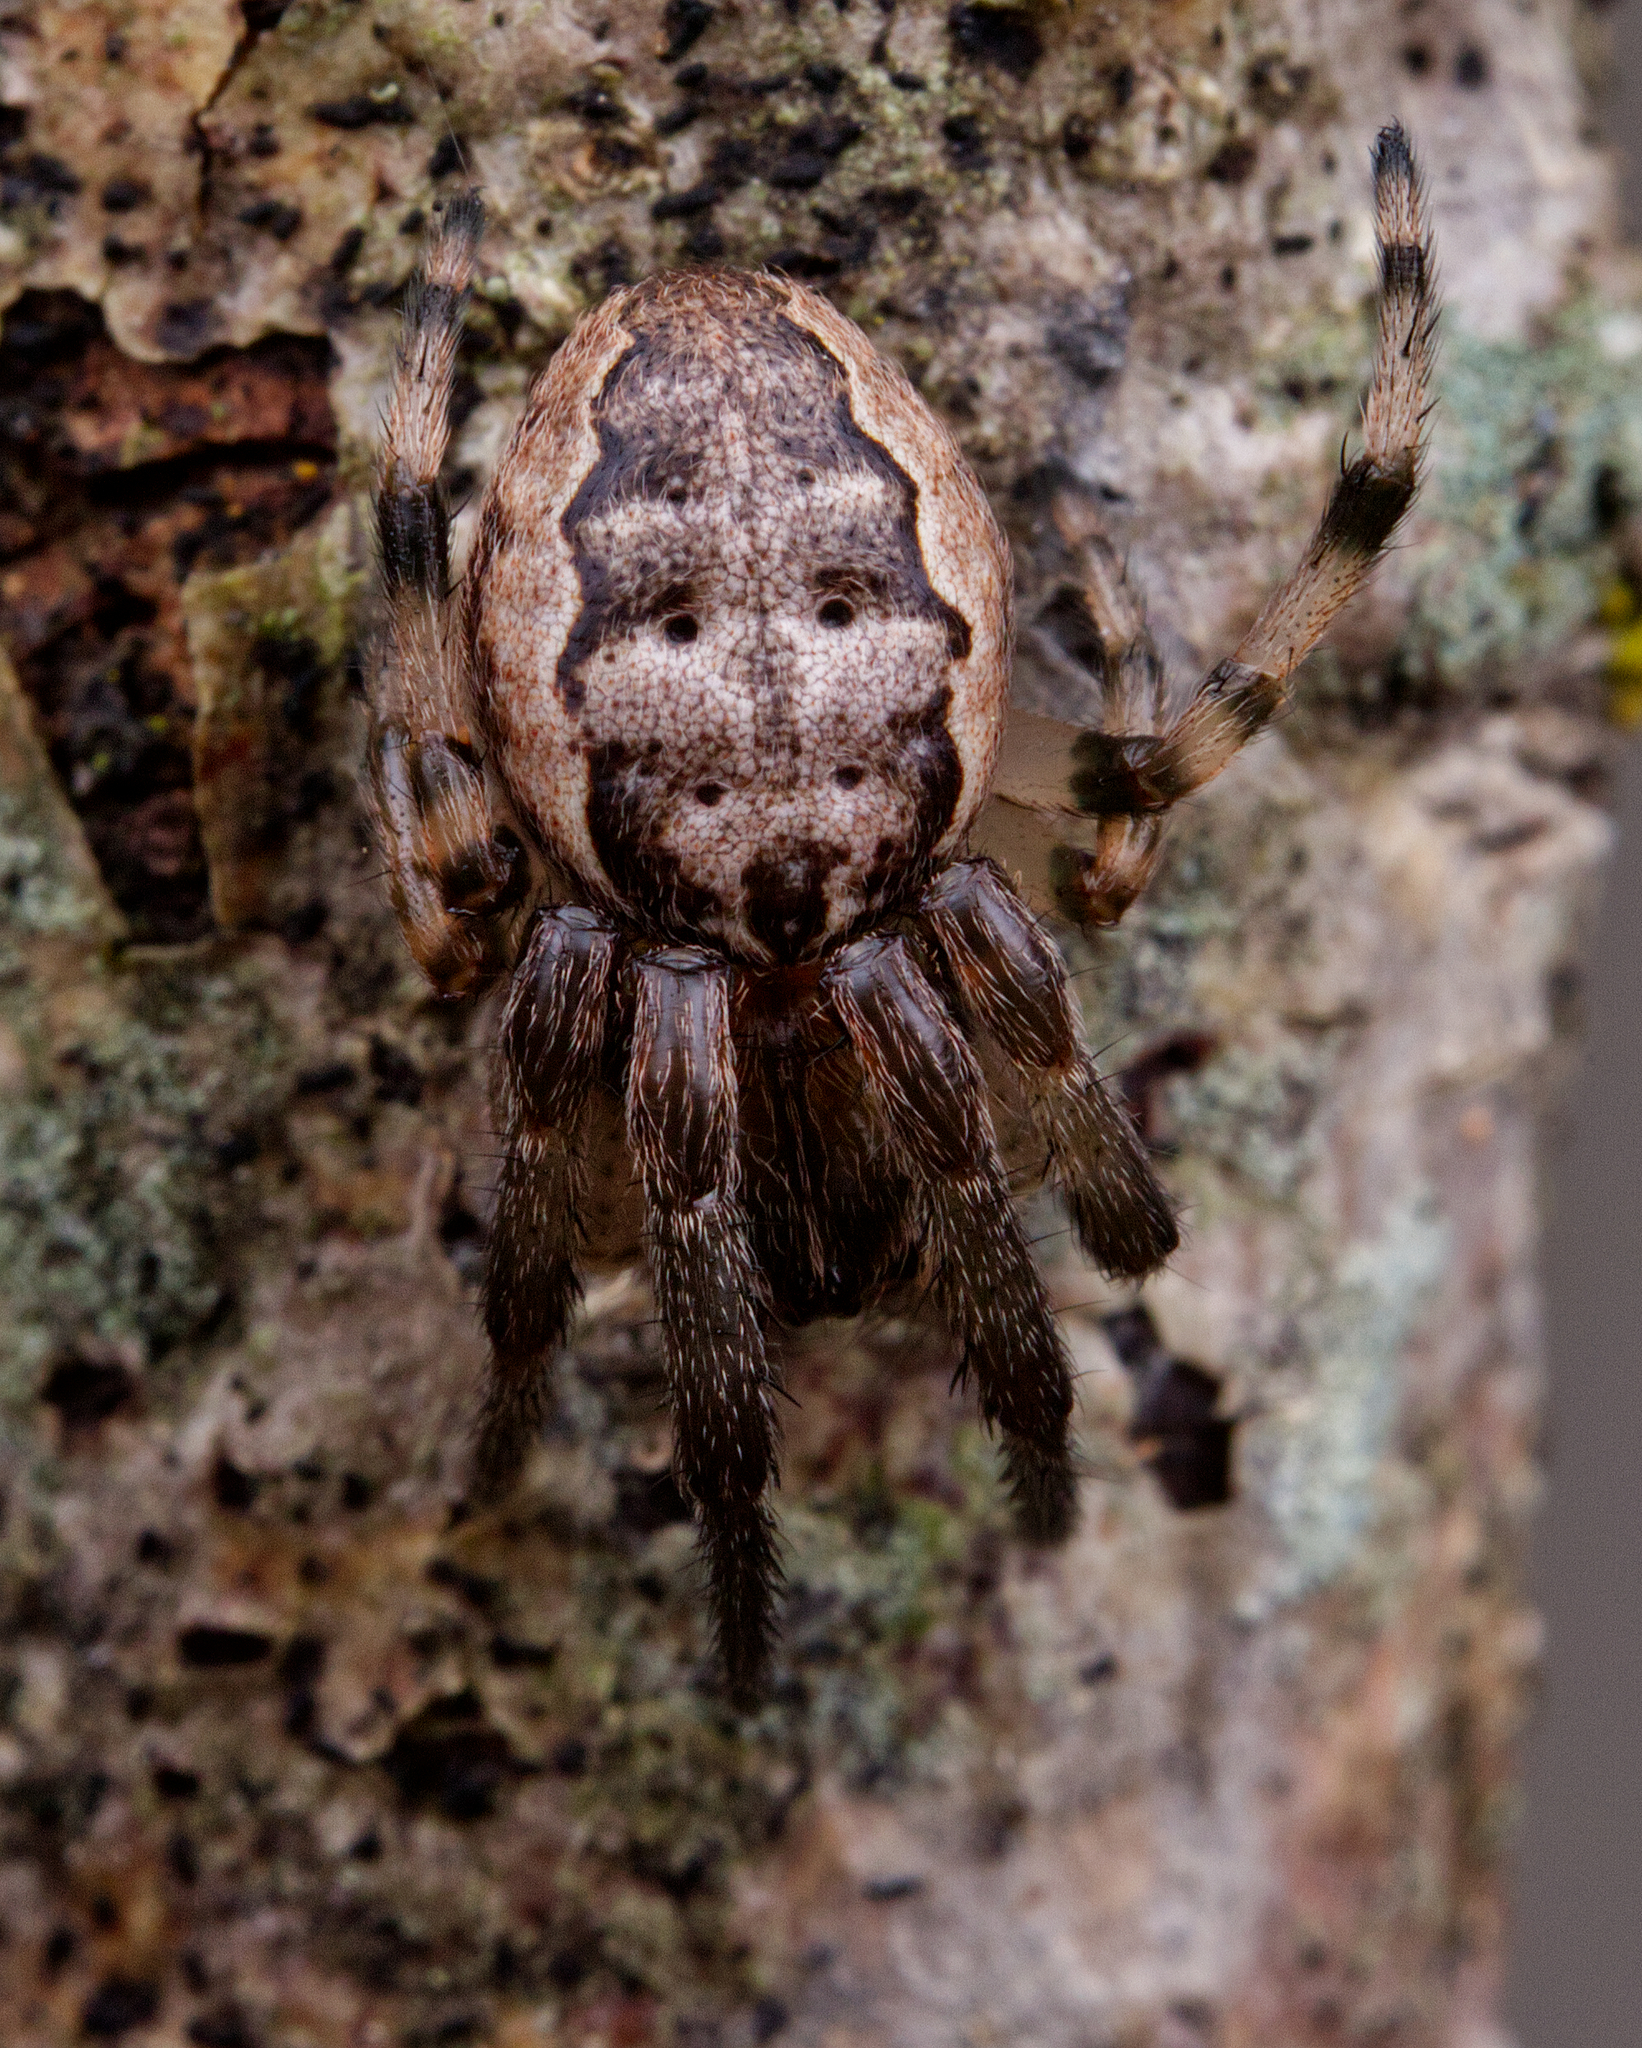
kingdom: Animalia
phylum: Arthropoda
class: Arachnida
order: Araneae
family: Araneidae
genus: Larinioides
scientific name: Larinioides cornutus
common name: Furrow orbweaver
